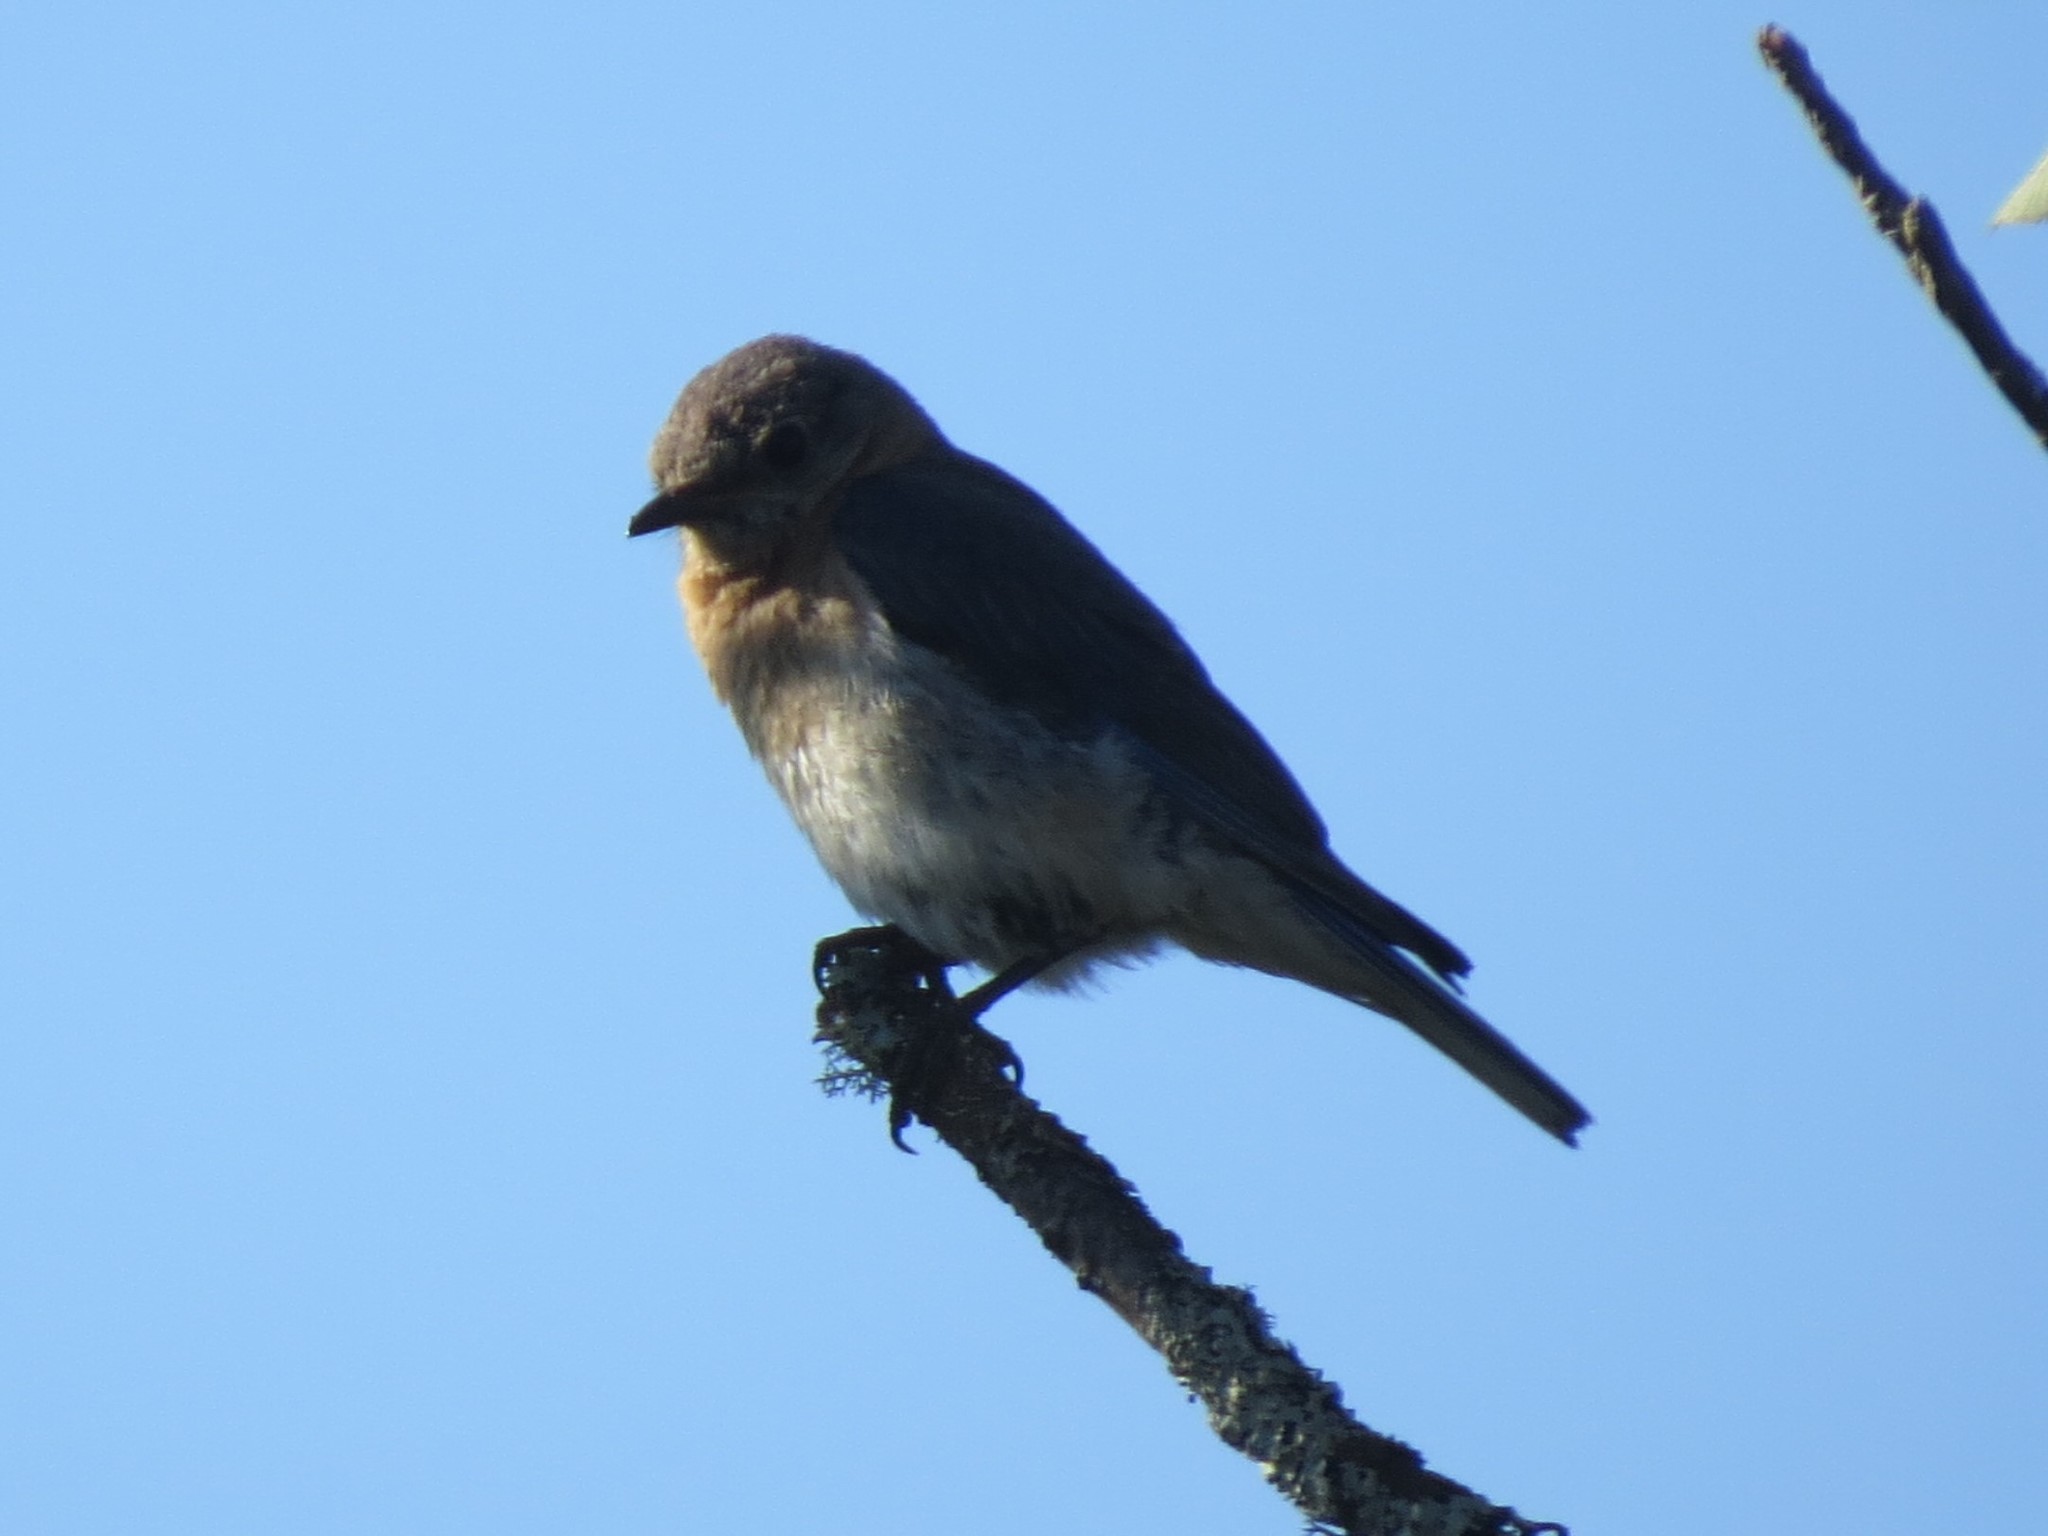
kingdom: Animalia
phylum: Chordata
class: Aves
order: Passeriformes
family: Turdidae
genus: Sialia
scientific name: Sialia sialis
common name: Eastern bluebird
